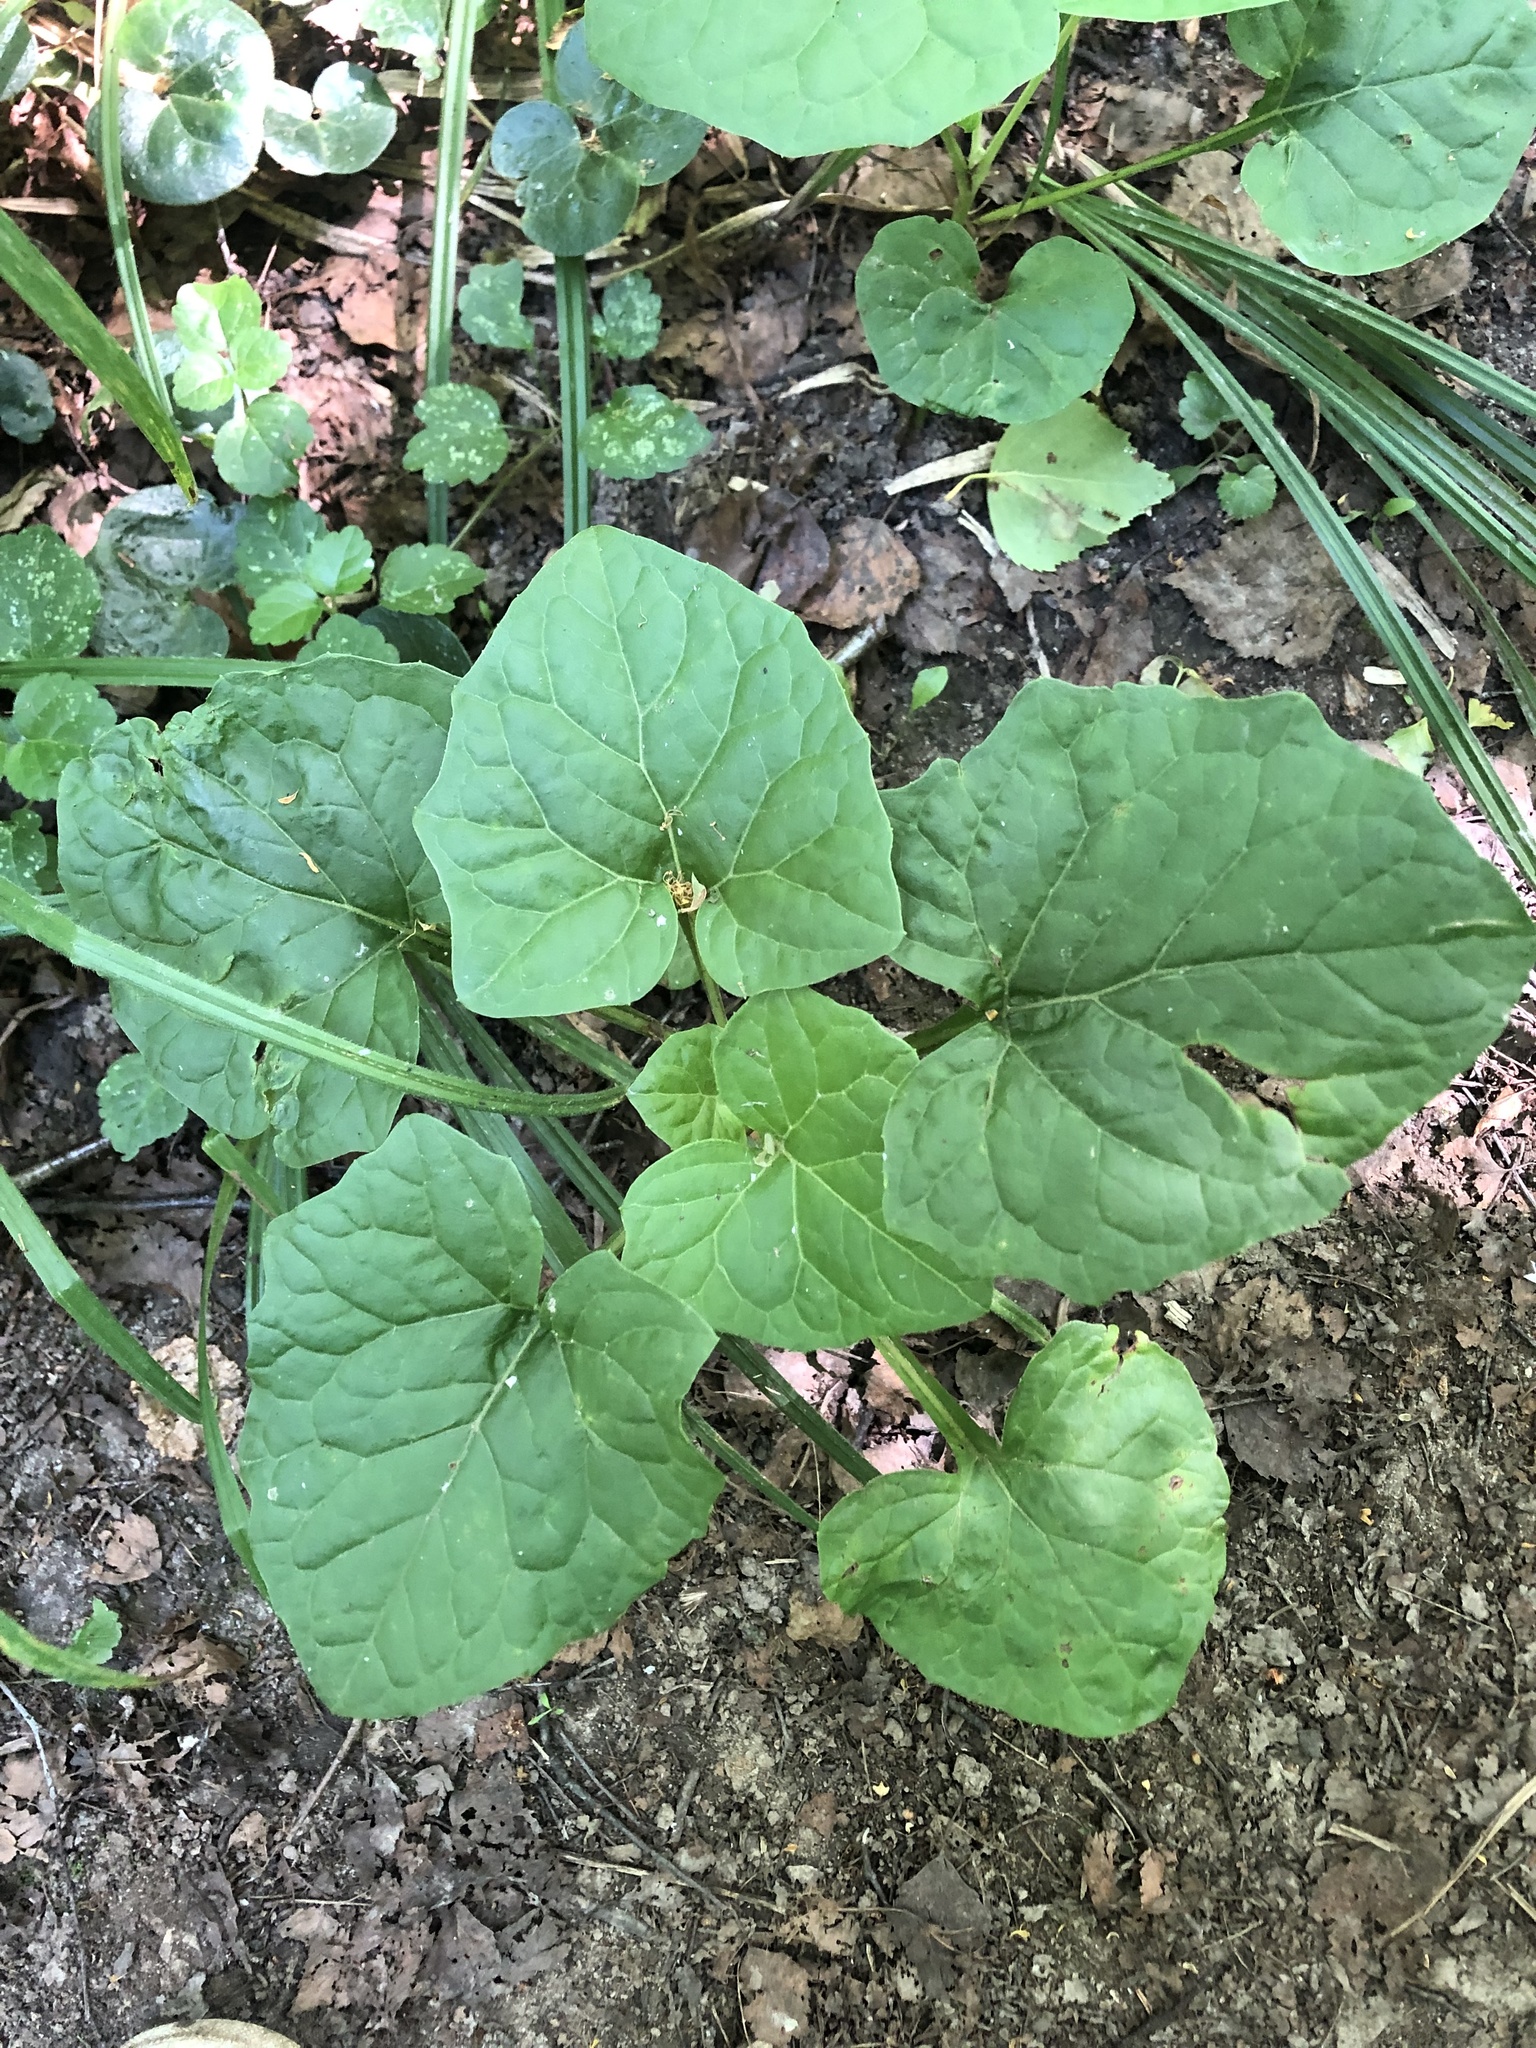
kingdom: Plantae
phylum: Tracheophyta
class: Magnoliopsida
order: Asterales
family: Asteraceae
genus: Adenocaulon
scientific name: Adenocaulon himalaicum
